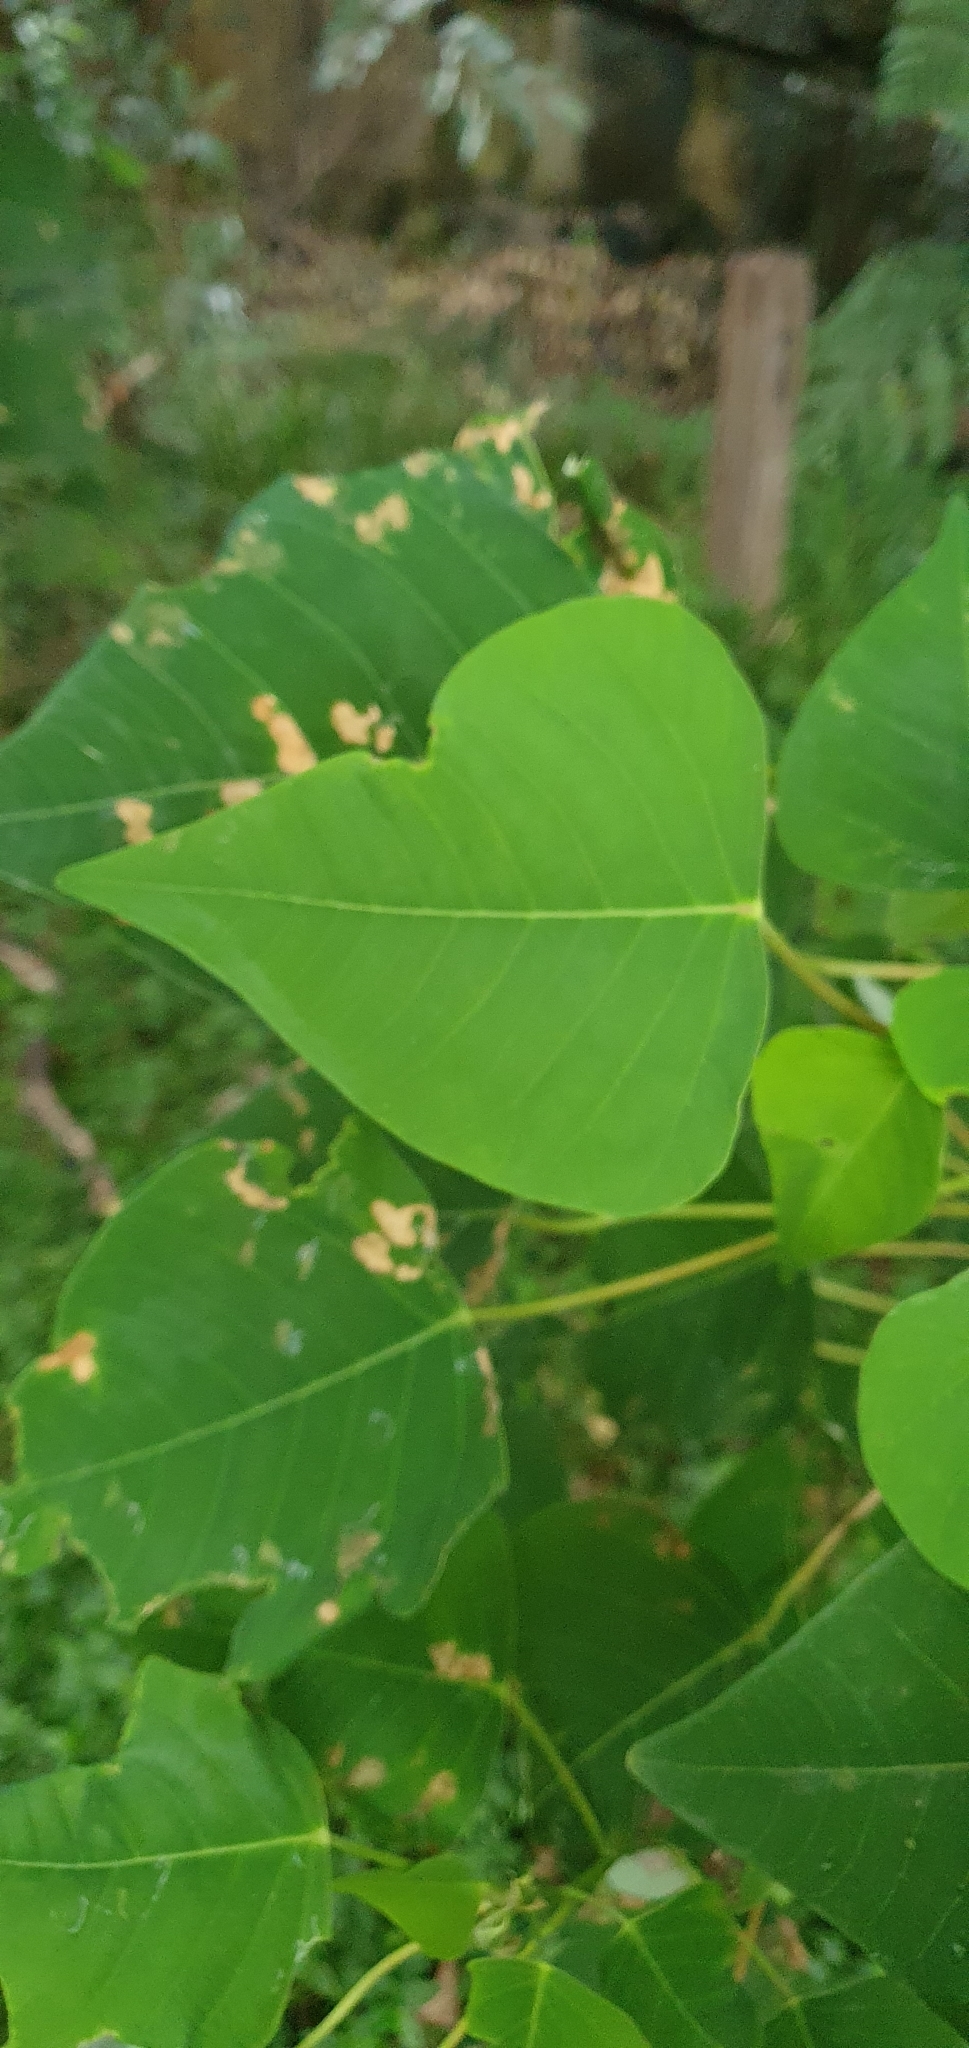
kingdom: Plantae
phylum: Tracheophyta
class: Magnoliopsida
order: Malpighiales
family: Euphorbiaceae
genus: Homalanthus
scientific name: Homalanthus populifolius
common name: Queensland poplar
